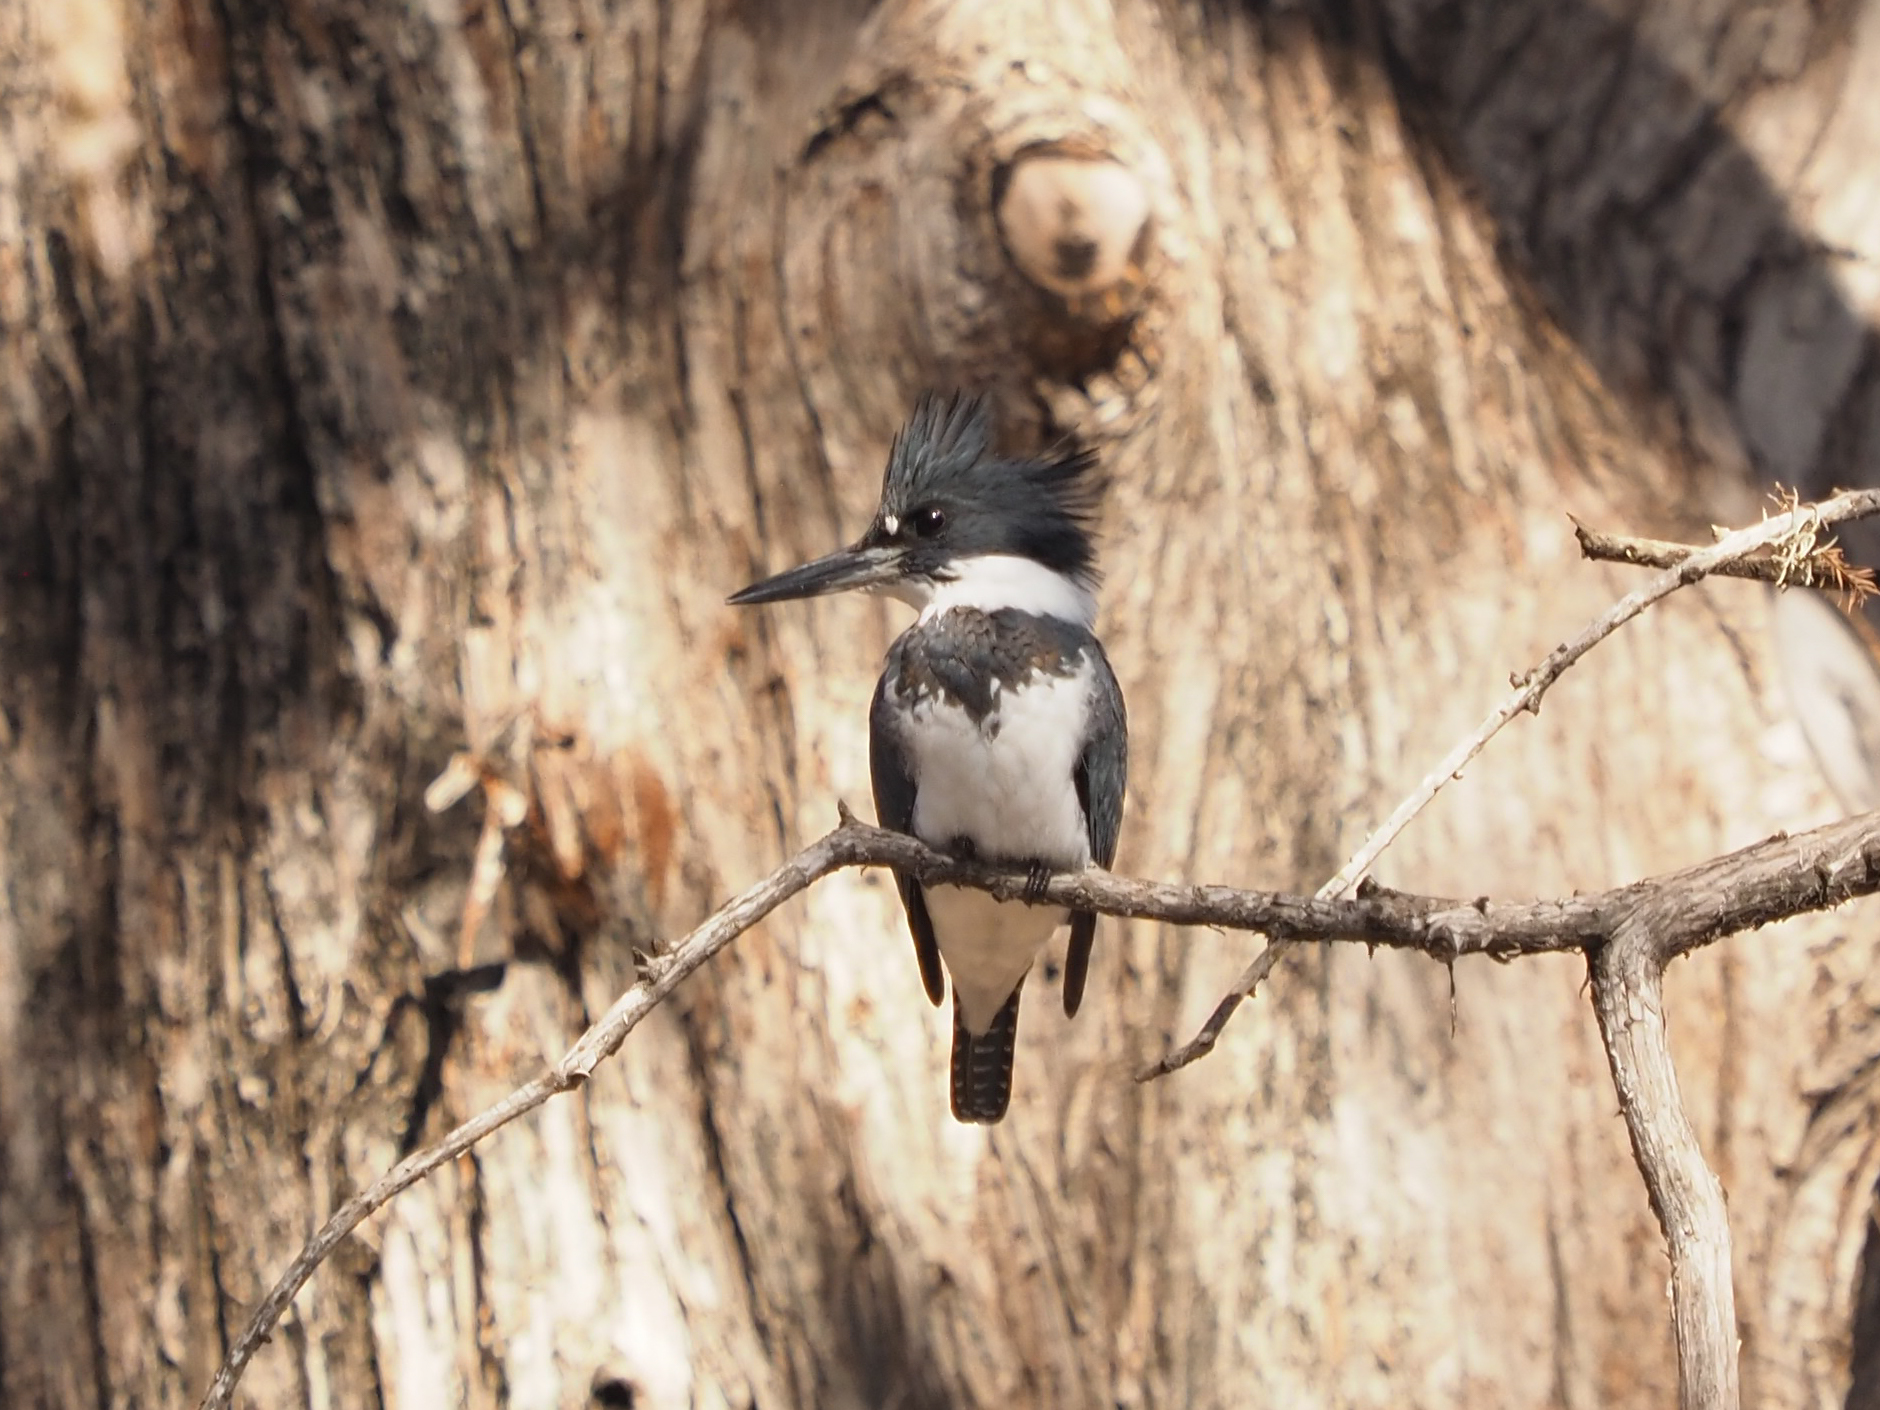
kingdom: Animalia
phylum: Chordata
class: Aves
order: Coraciiformes
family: Alcedinidae
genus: Megaceryle
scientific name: Megaceryle alcyon
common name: Belted kingfisher
